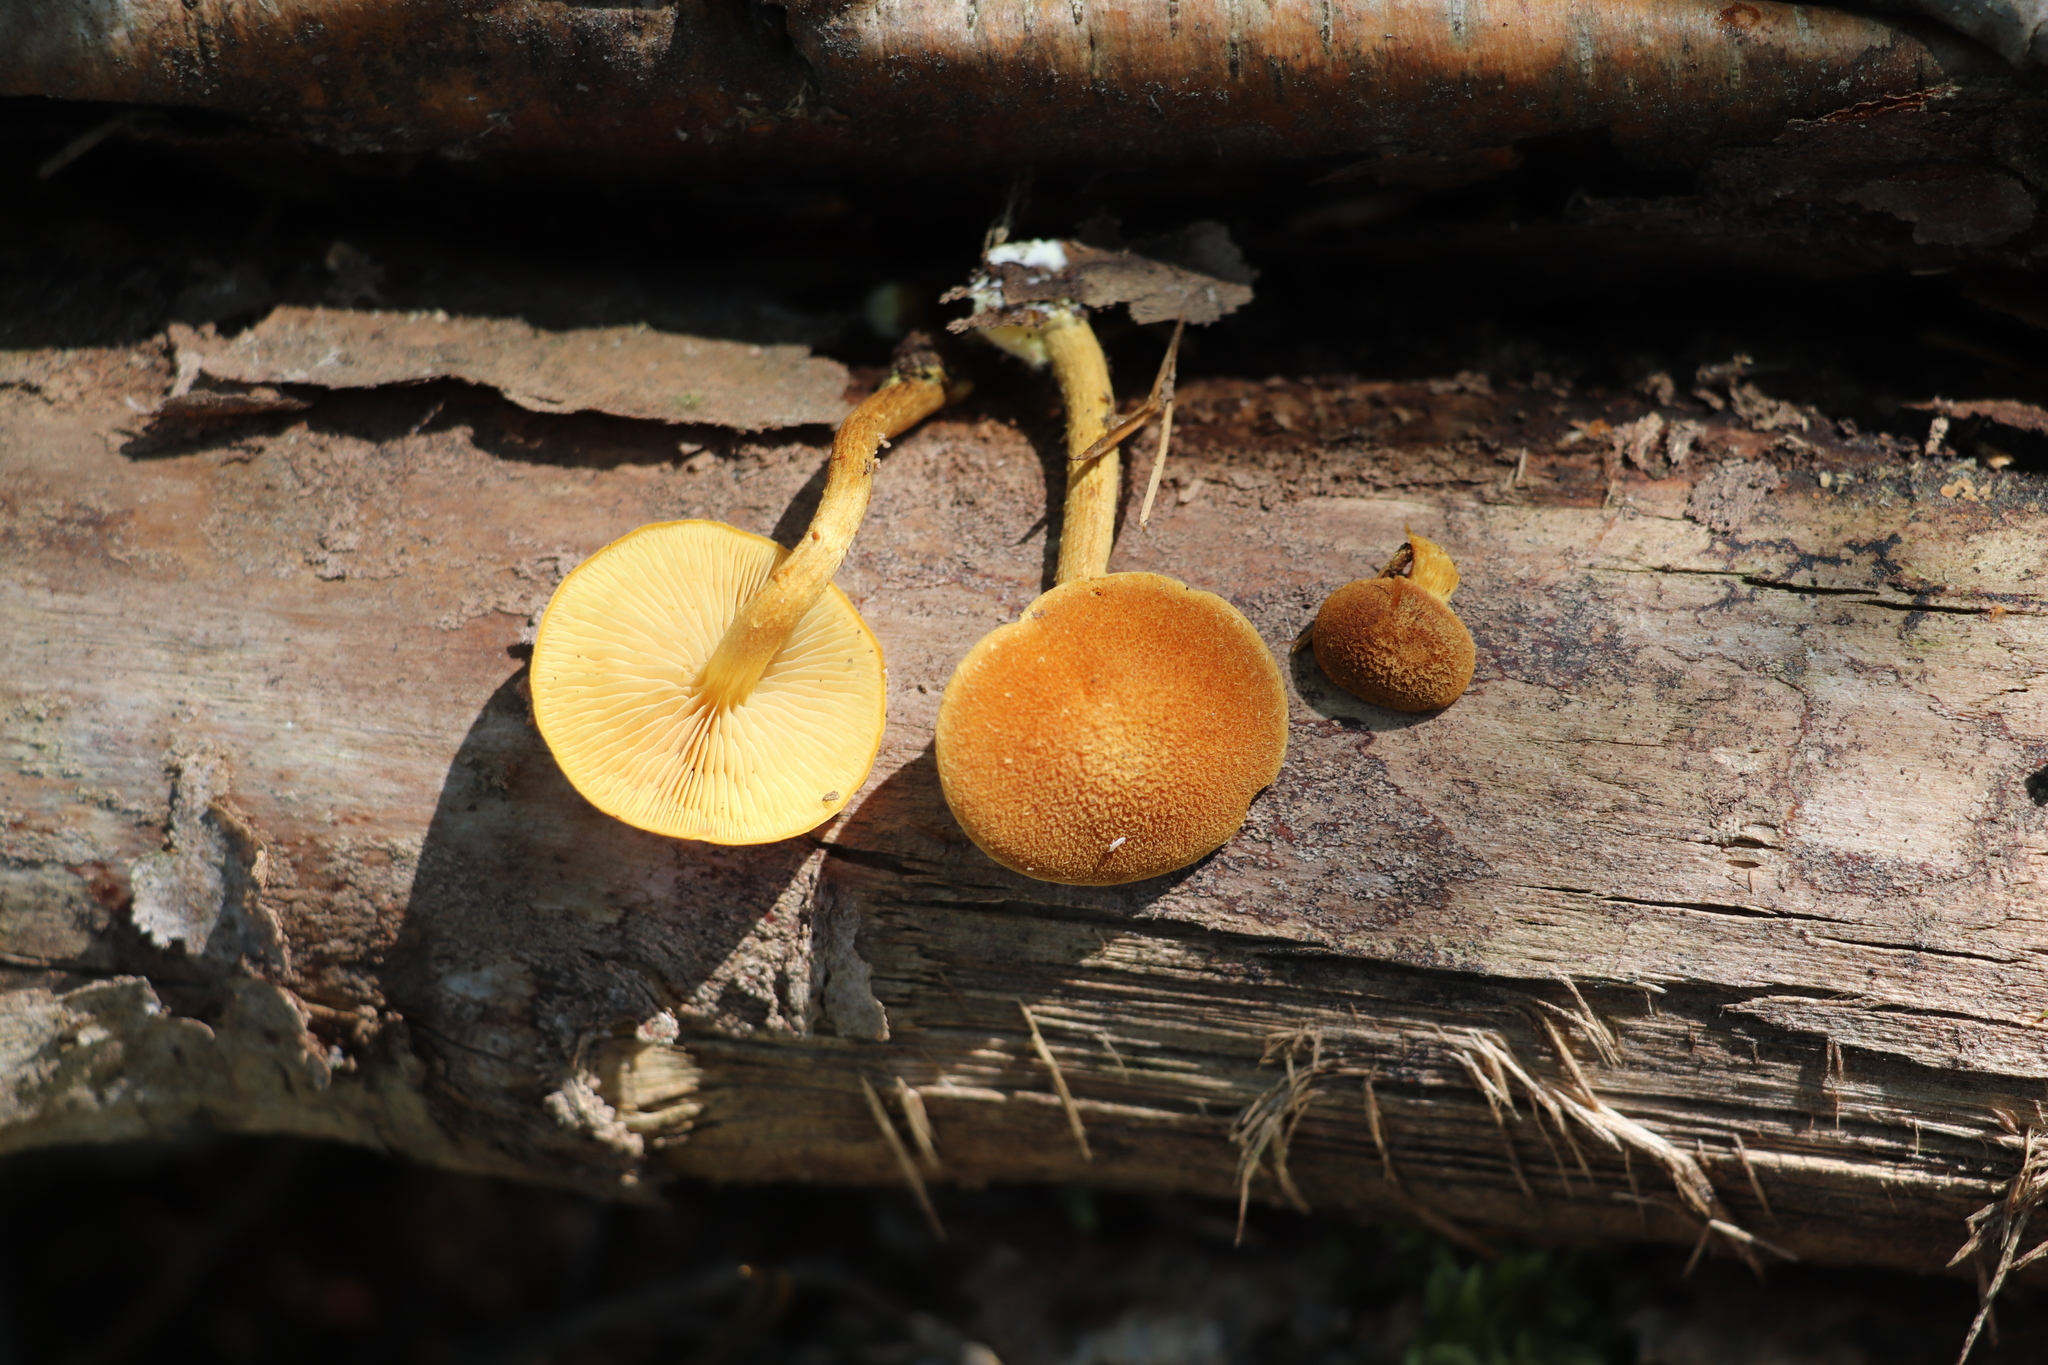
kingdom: Fungi
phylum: Basidiomycota
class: Agaricomycetes
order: Agaricales
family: Tubariaceae
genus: Flammulaster
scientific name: Flammulaster limulatus
